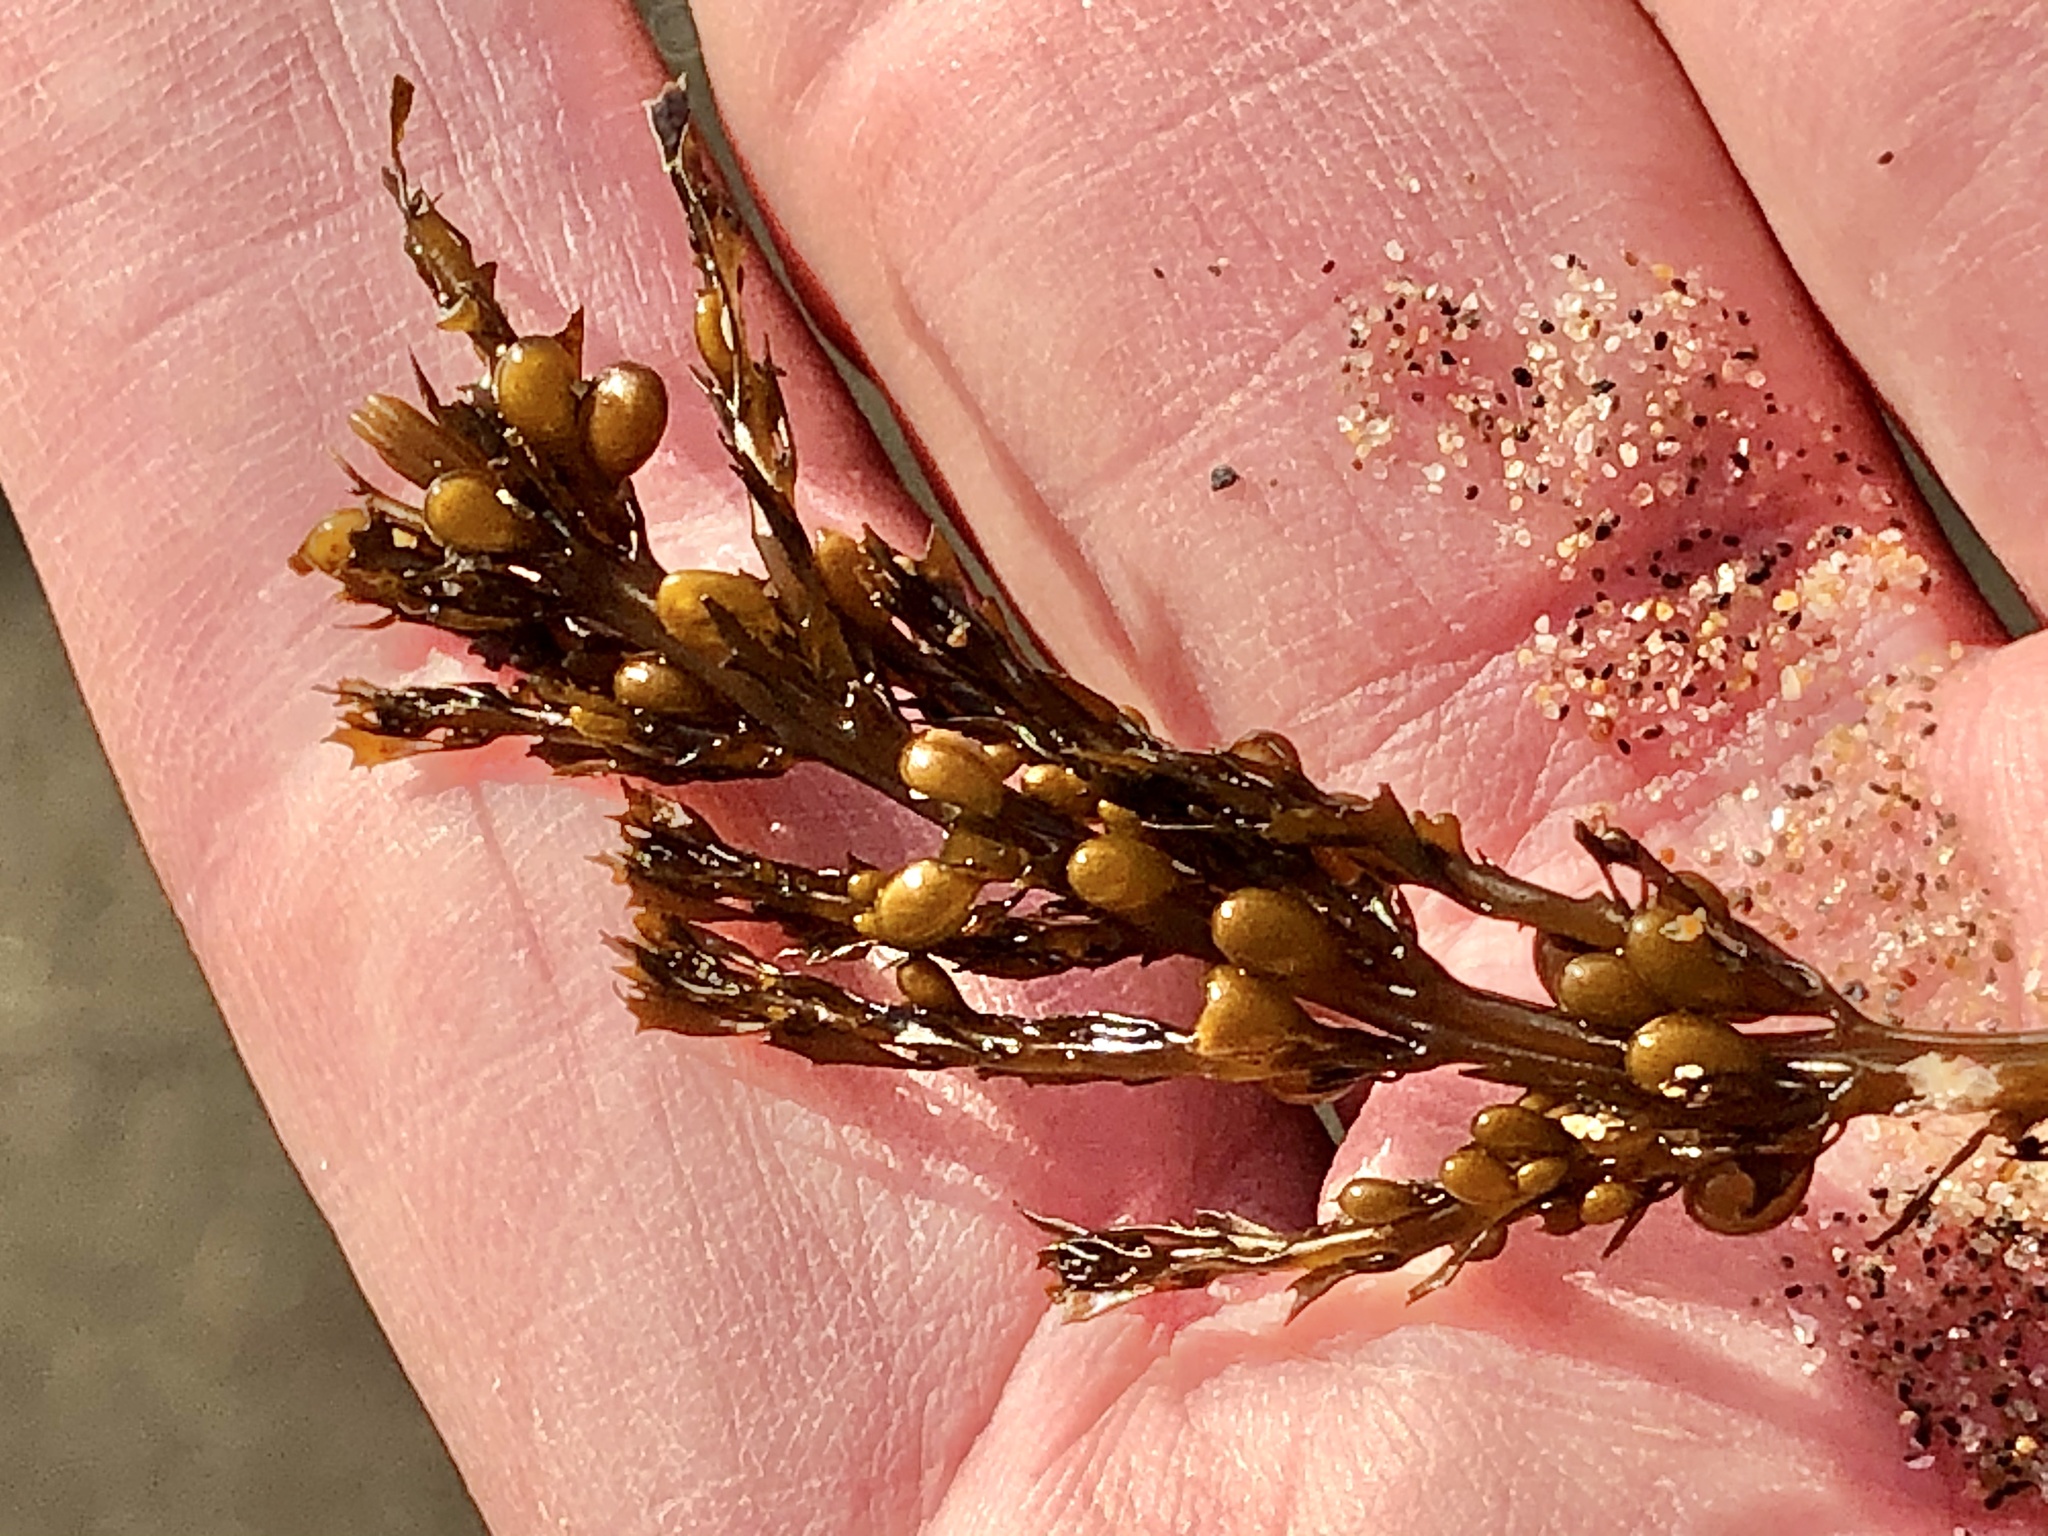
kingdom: Chromista
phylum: Ochrophyta
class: Phaeophyceae
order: Fucales
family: Sargassaceae
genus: Sargassum
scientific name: Sargassum muticum
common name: Japweed
